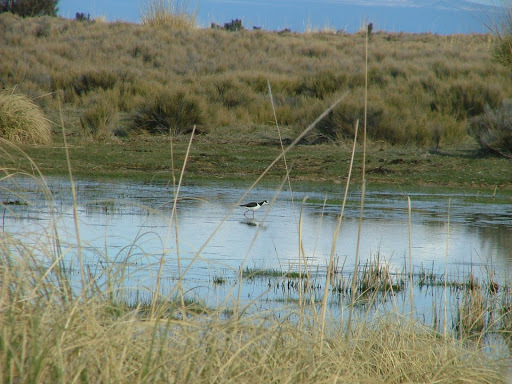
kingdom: Animalia
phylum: Chordata
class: Aves
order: Charadriiformes
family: Recurvirostridae
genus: Himantopus
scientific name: Himantopus mexicanus
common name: Black-necked stilt
